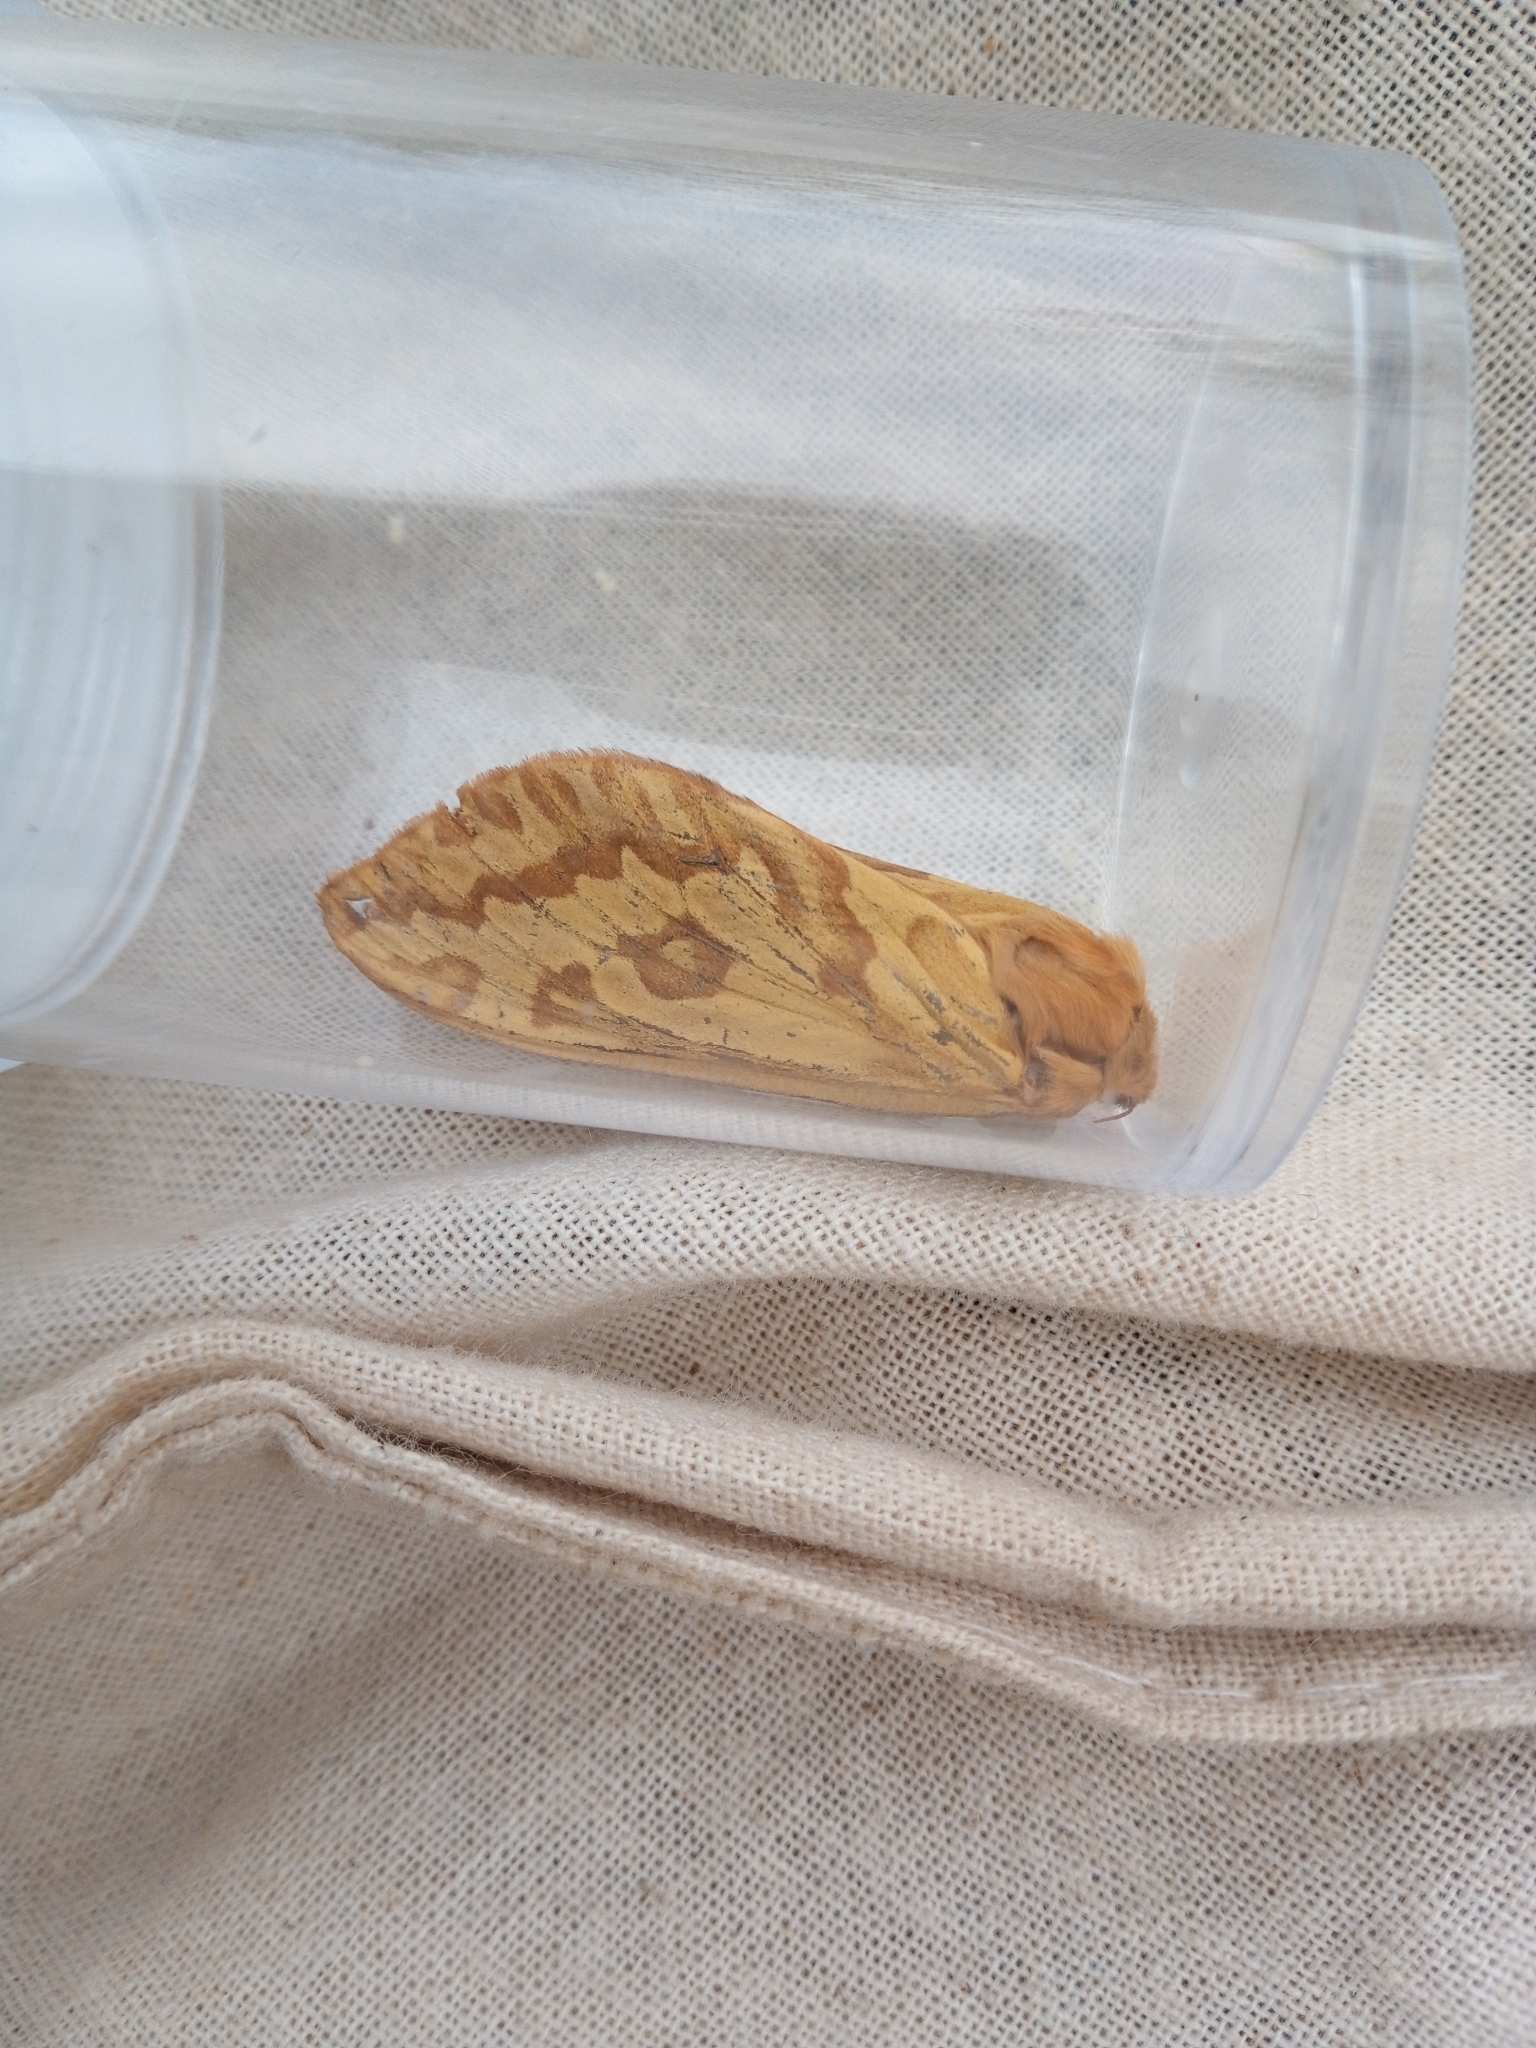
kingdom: Animalia
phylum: Arthropoda
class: Insecta
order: Lepidoptera
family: Hepialidae
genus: Hepialus
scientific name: Hepialus humuli
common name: Ghost moth
